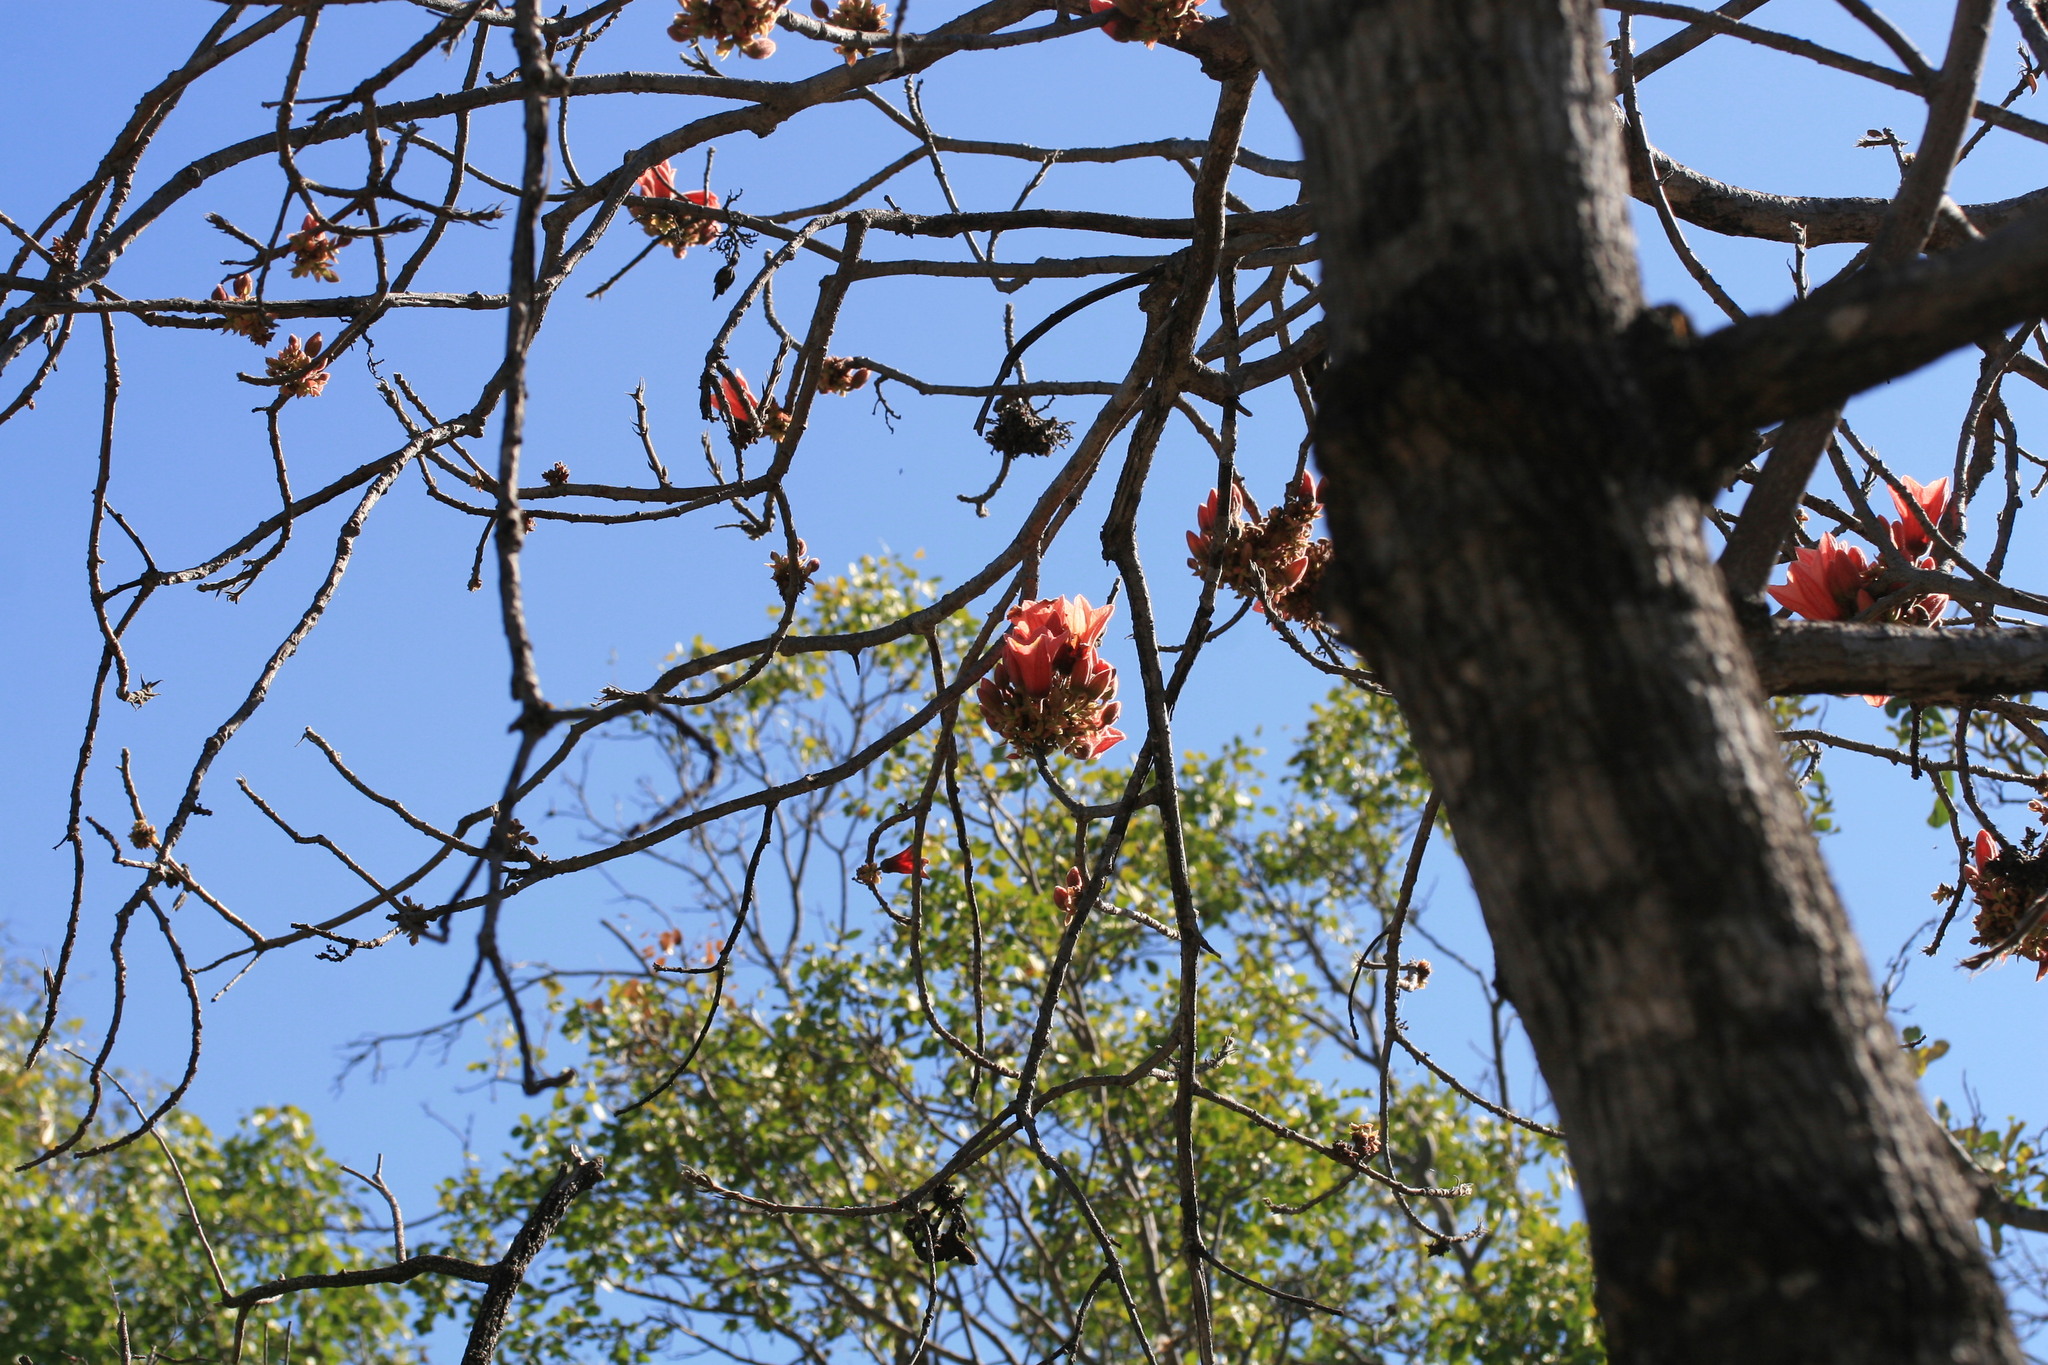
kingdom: Plantae
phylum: Tracheophyta
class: Magnoliopsida
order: Malvales
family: Malvaceae
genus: Brachychiton
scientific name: Brachychiton viscidulus
